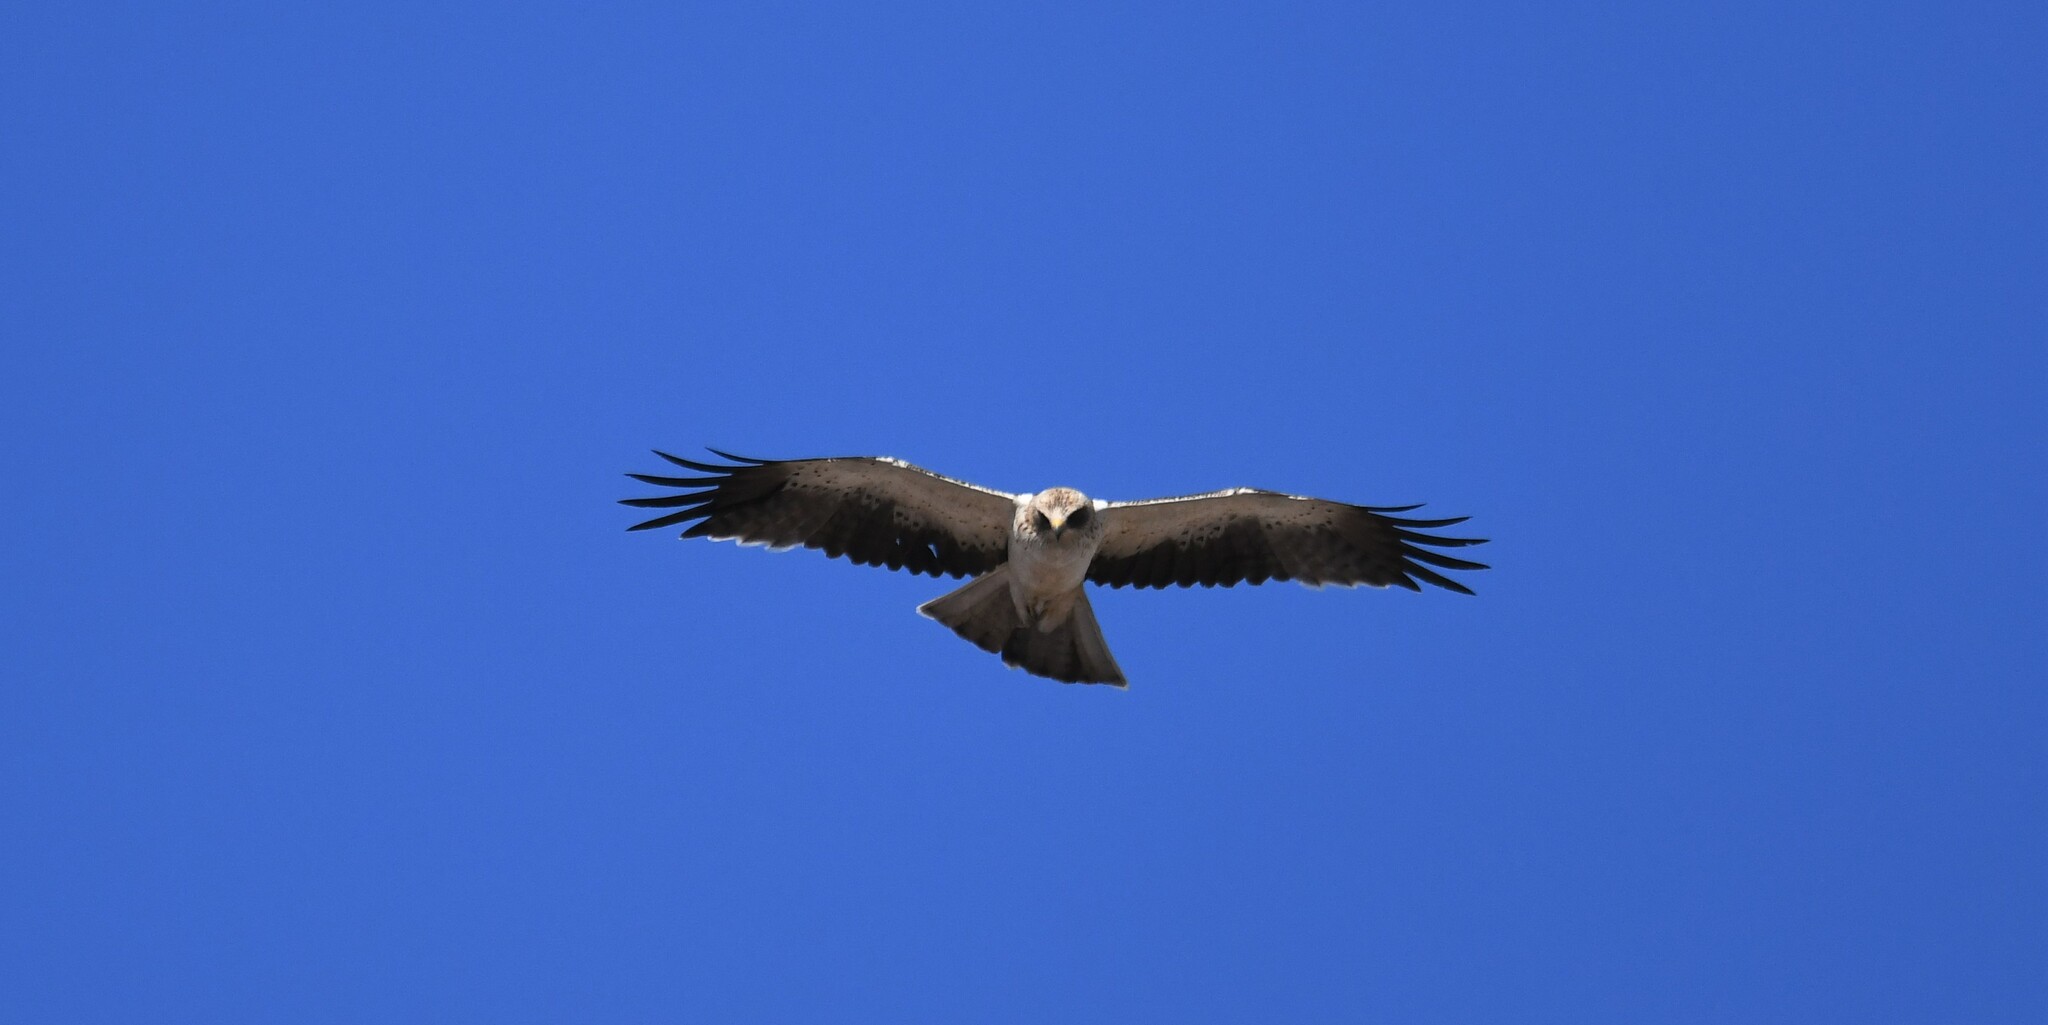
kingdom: Animalia
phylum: Chordata
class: Aves
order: Accipitriformes
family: Accipitridae
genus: Hieraaetus
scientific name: Hieraaetus pennatus
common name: Booted eagle
